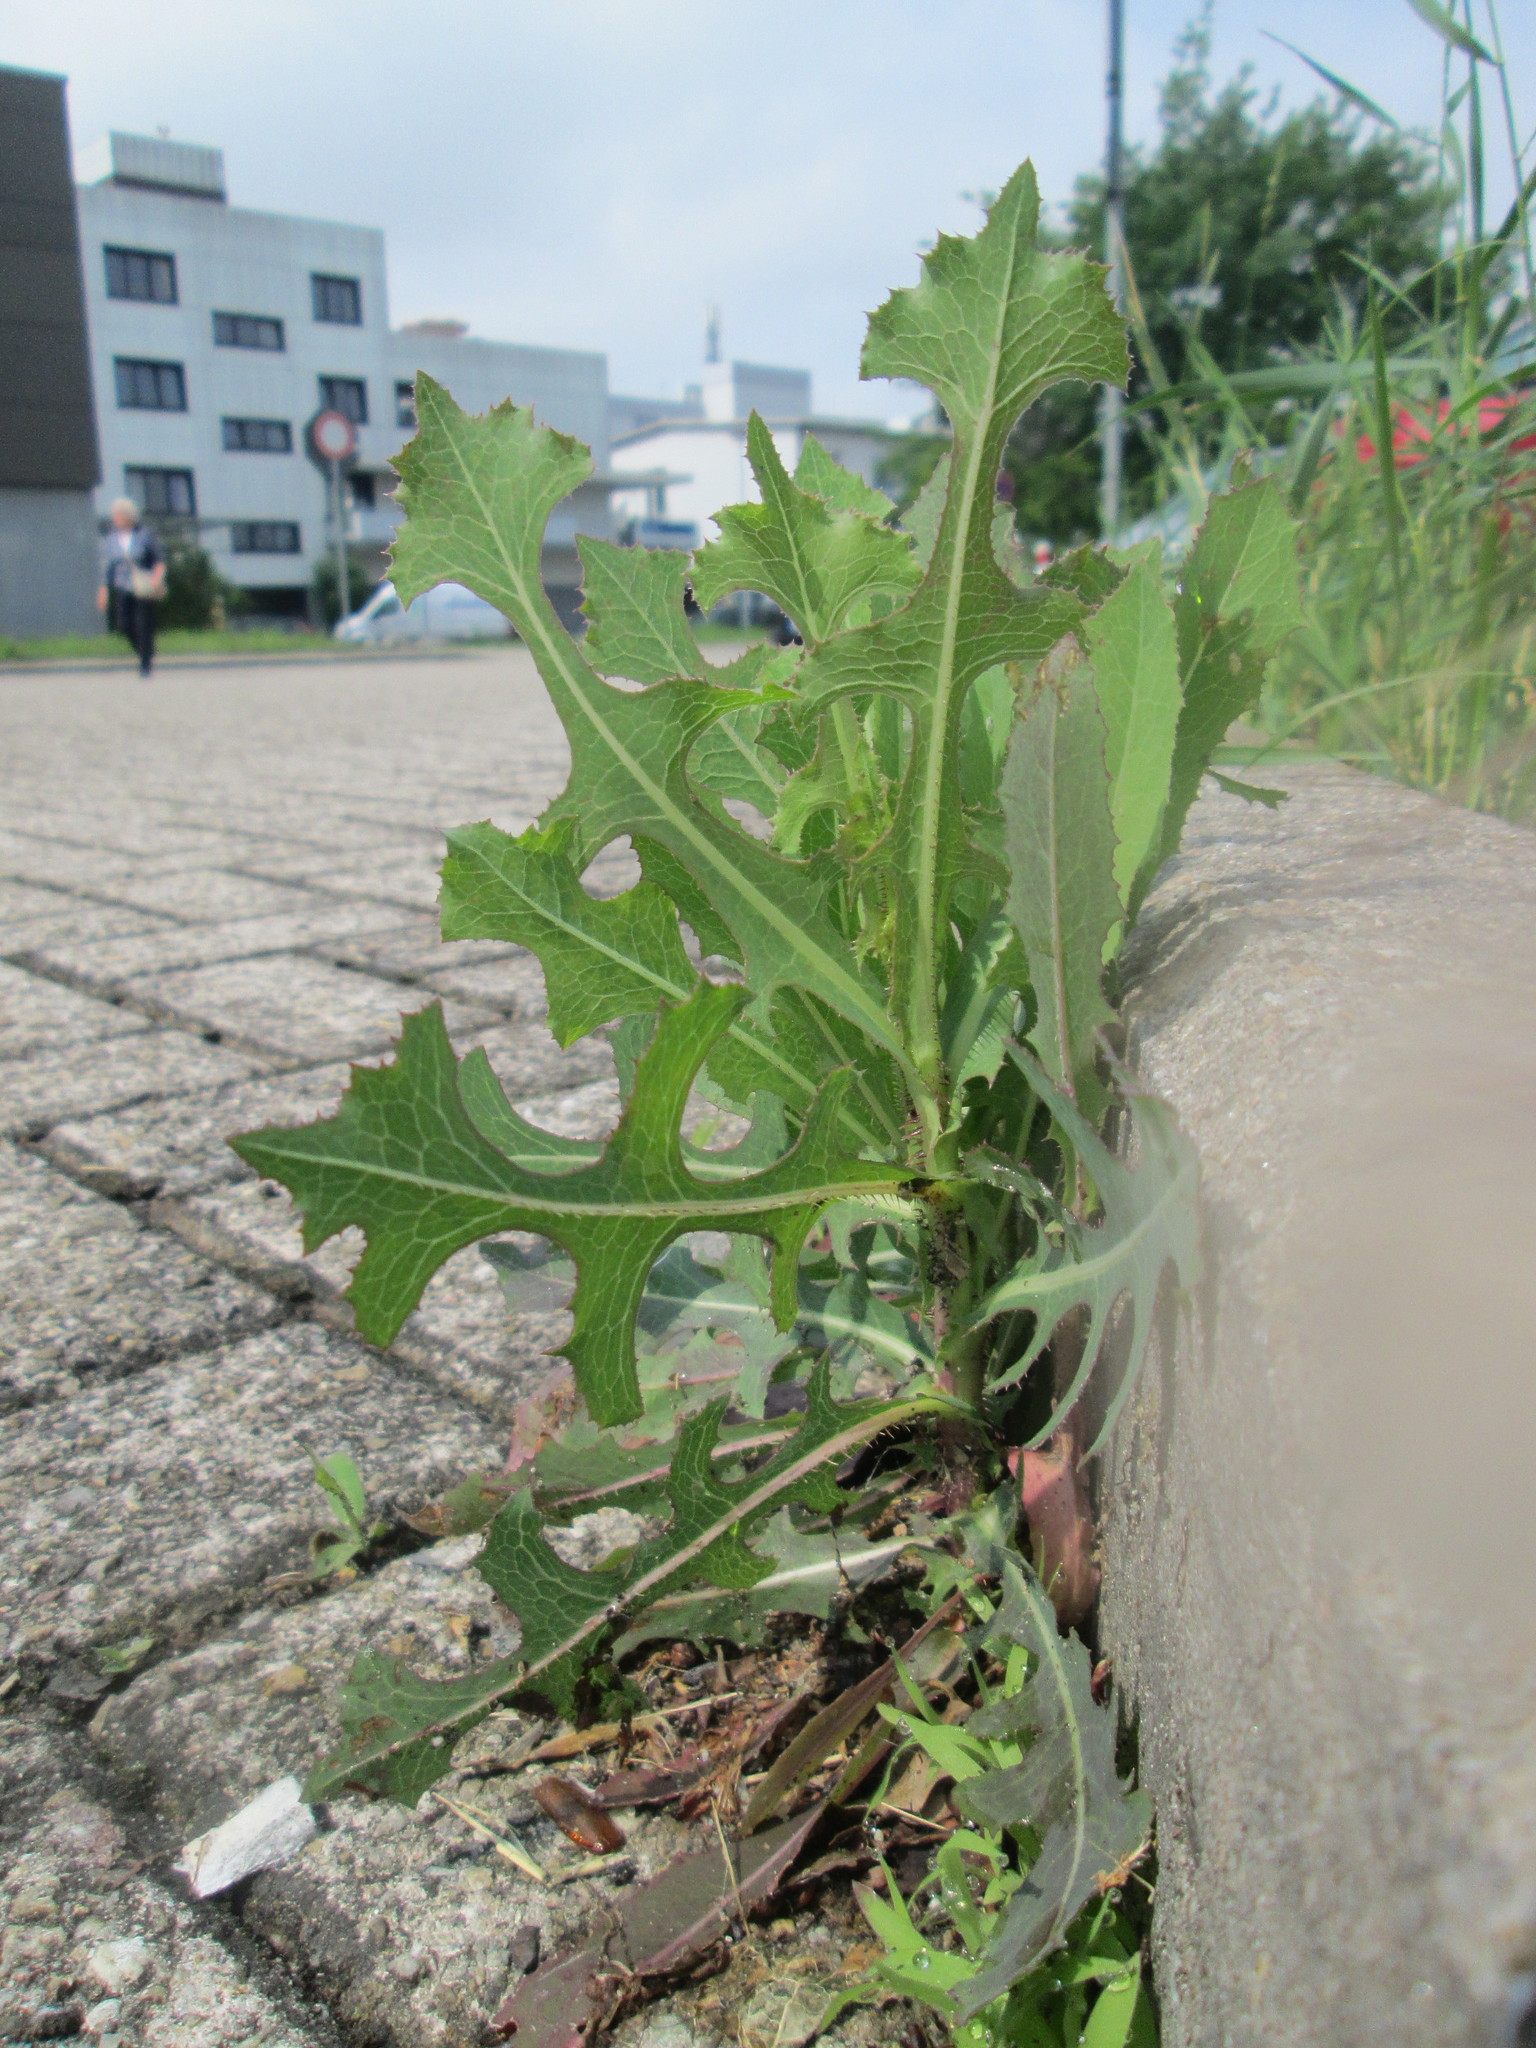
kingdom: Plantae
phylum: Tracheophyta
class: Magnoliopsida
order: Asterales
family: Asteraceae
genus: Lactuca
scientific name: Lactuca serriola
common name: Prickly lettuce
